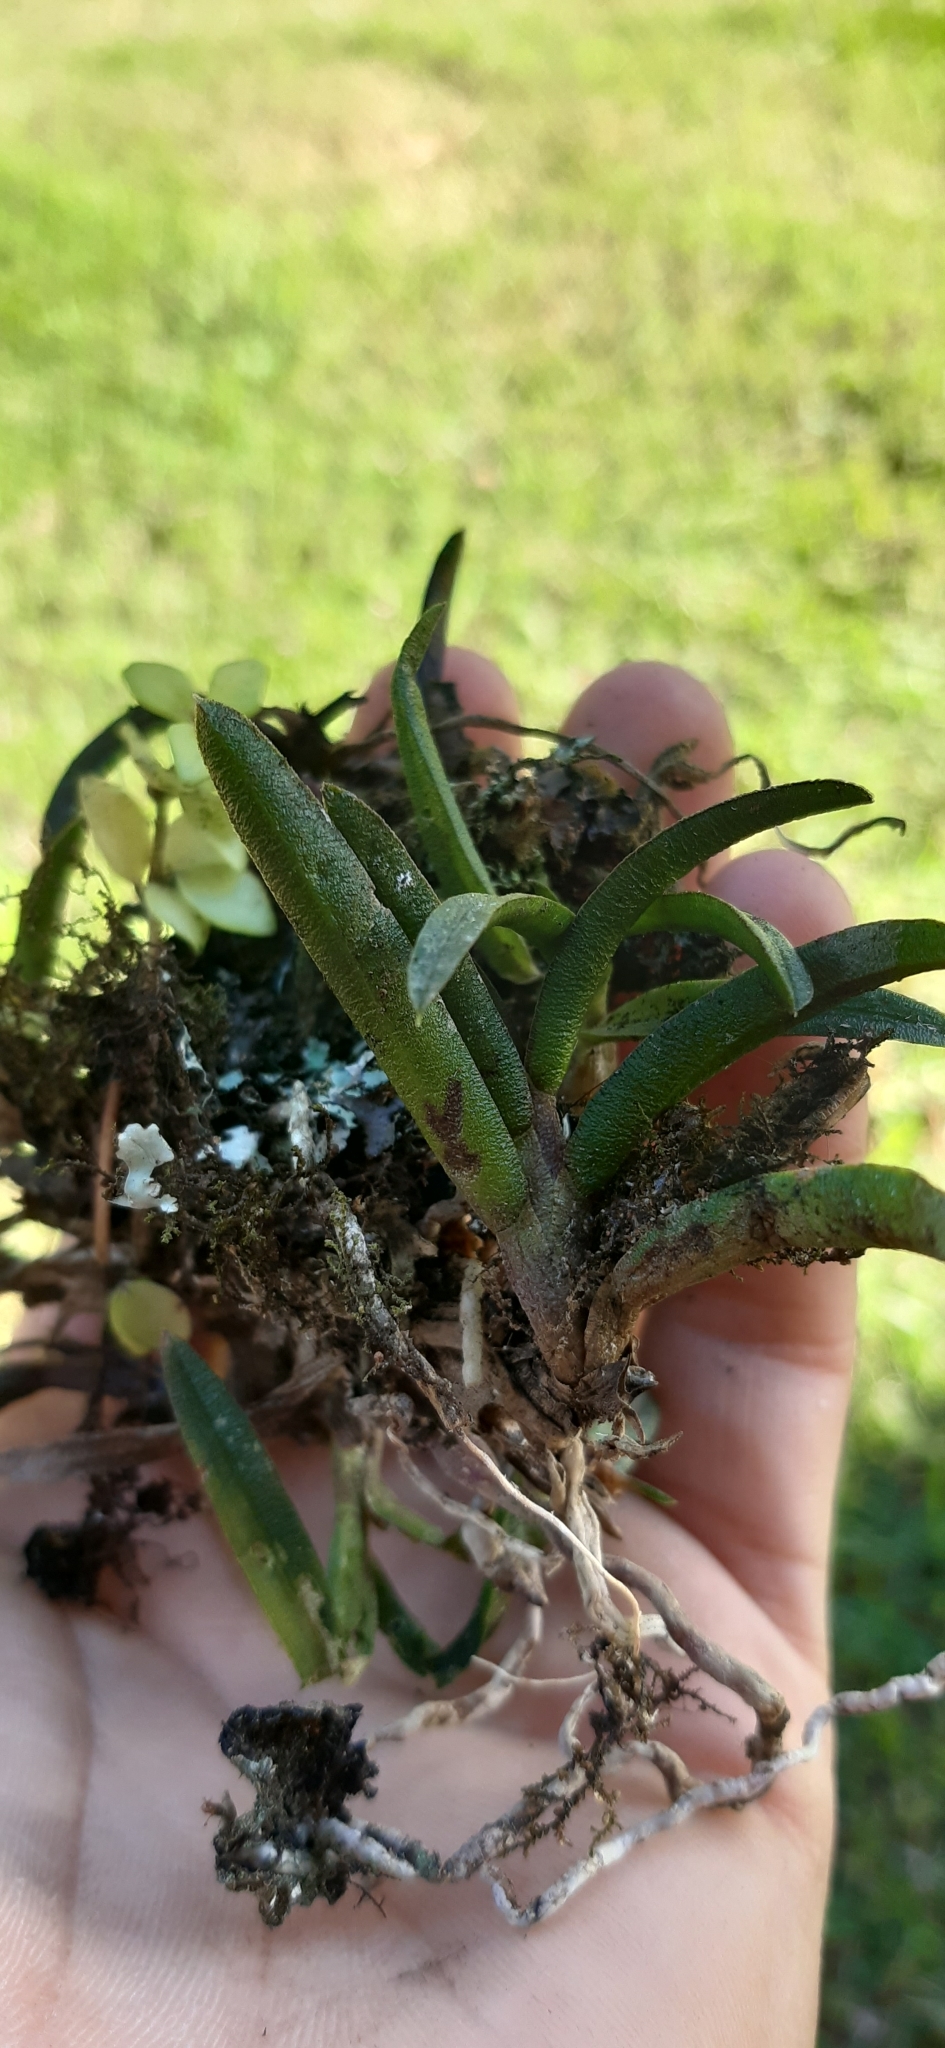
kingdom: Plantae
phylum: Tracheophyta
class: Liliopsida
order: Asparagales
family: Orchidaceae
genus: Epidendrum
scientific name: Epidendrum rhodovandoides
